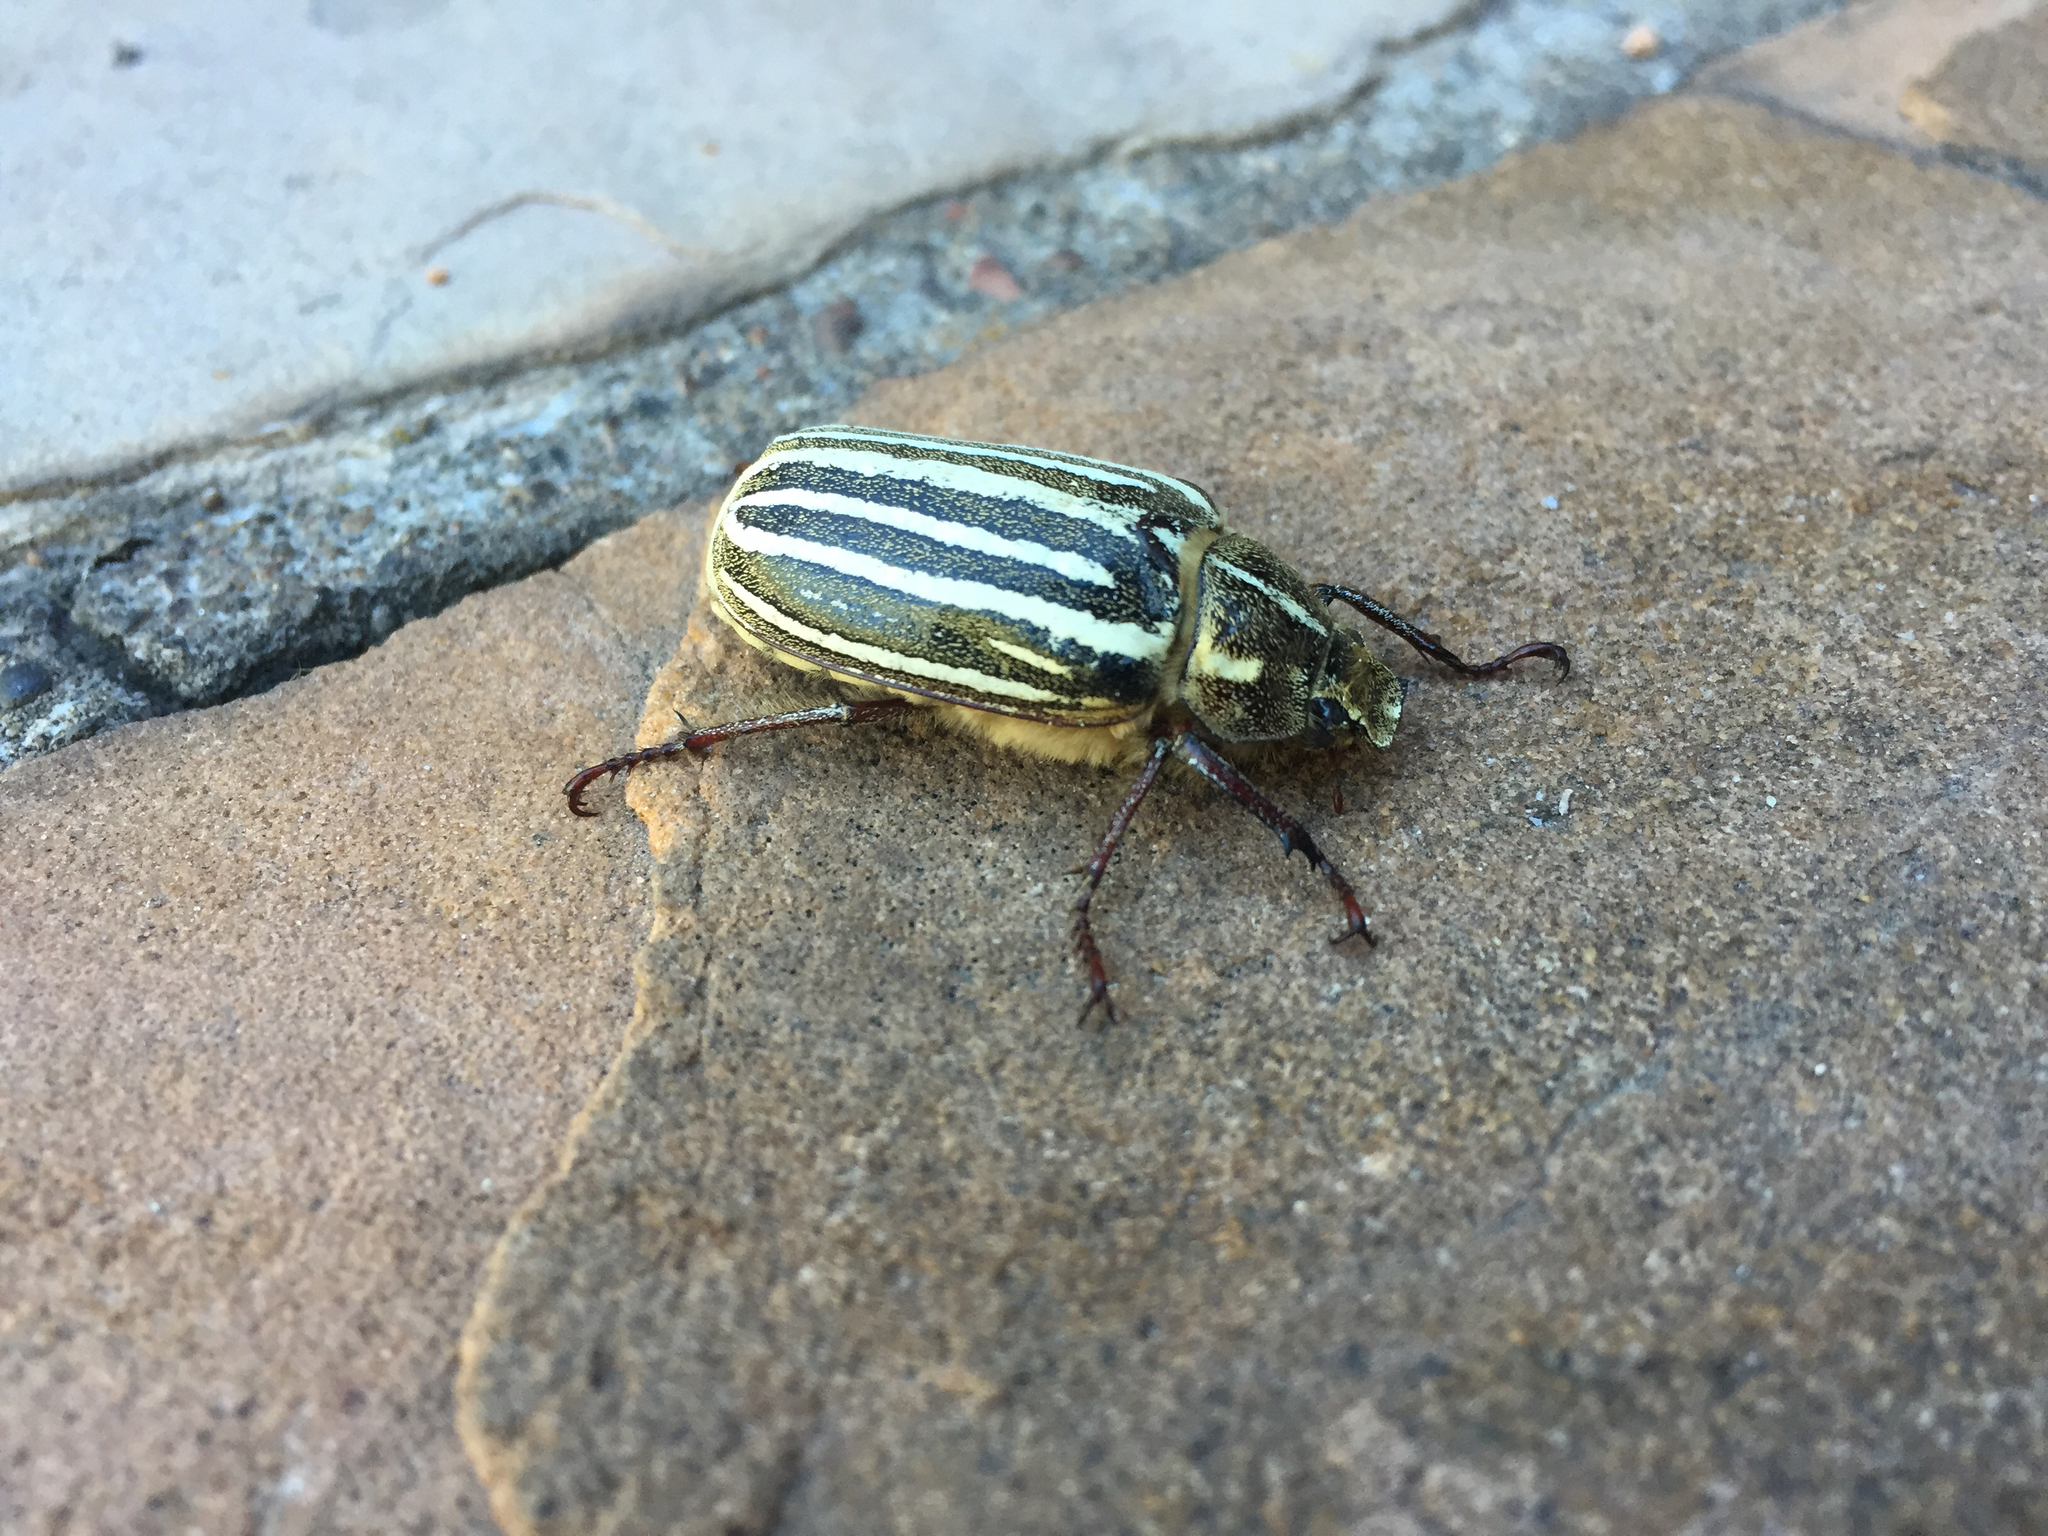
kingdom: Animalia
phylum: Arthropoda
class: Insecta
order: Coleoptera
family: Scarabaeidae
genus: Polyphylla
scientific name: Polyphylla decemlineata
